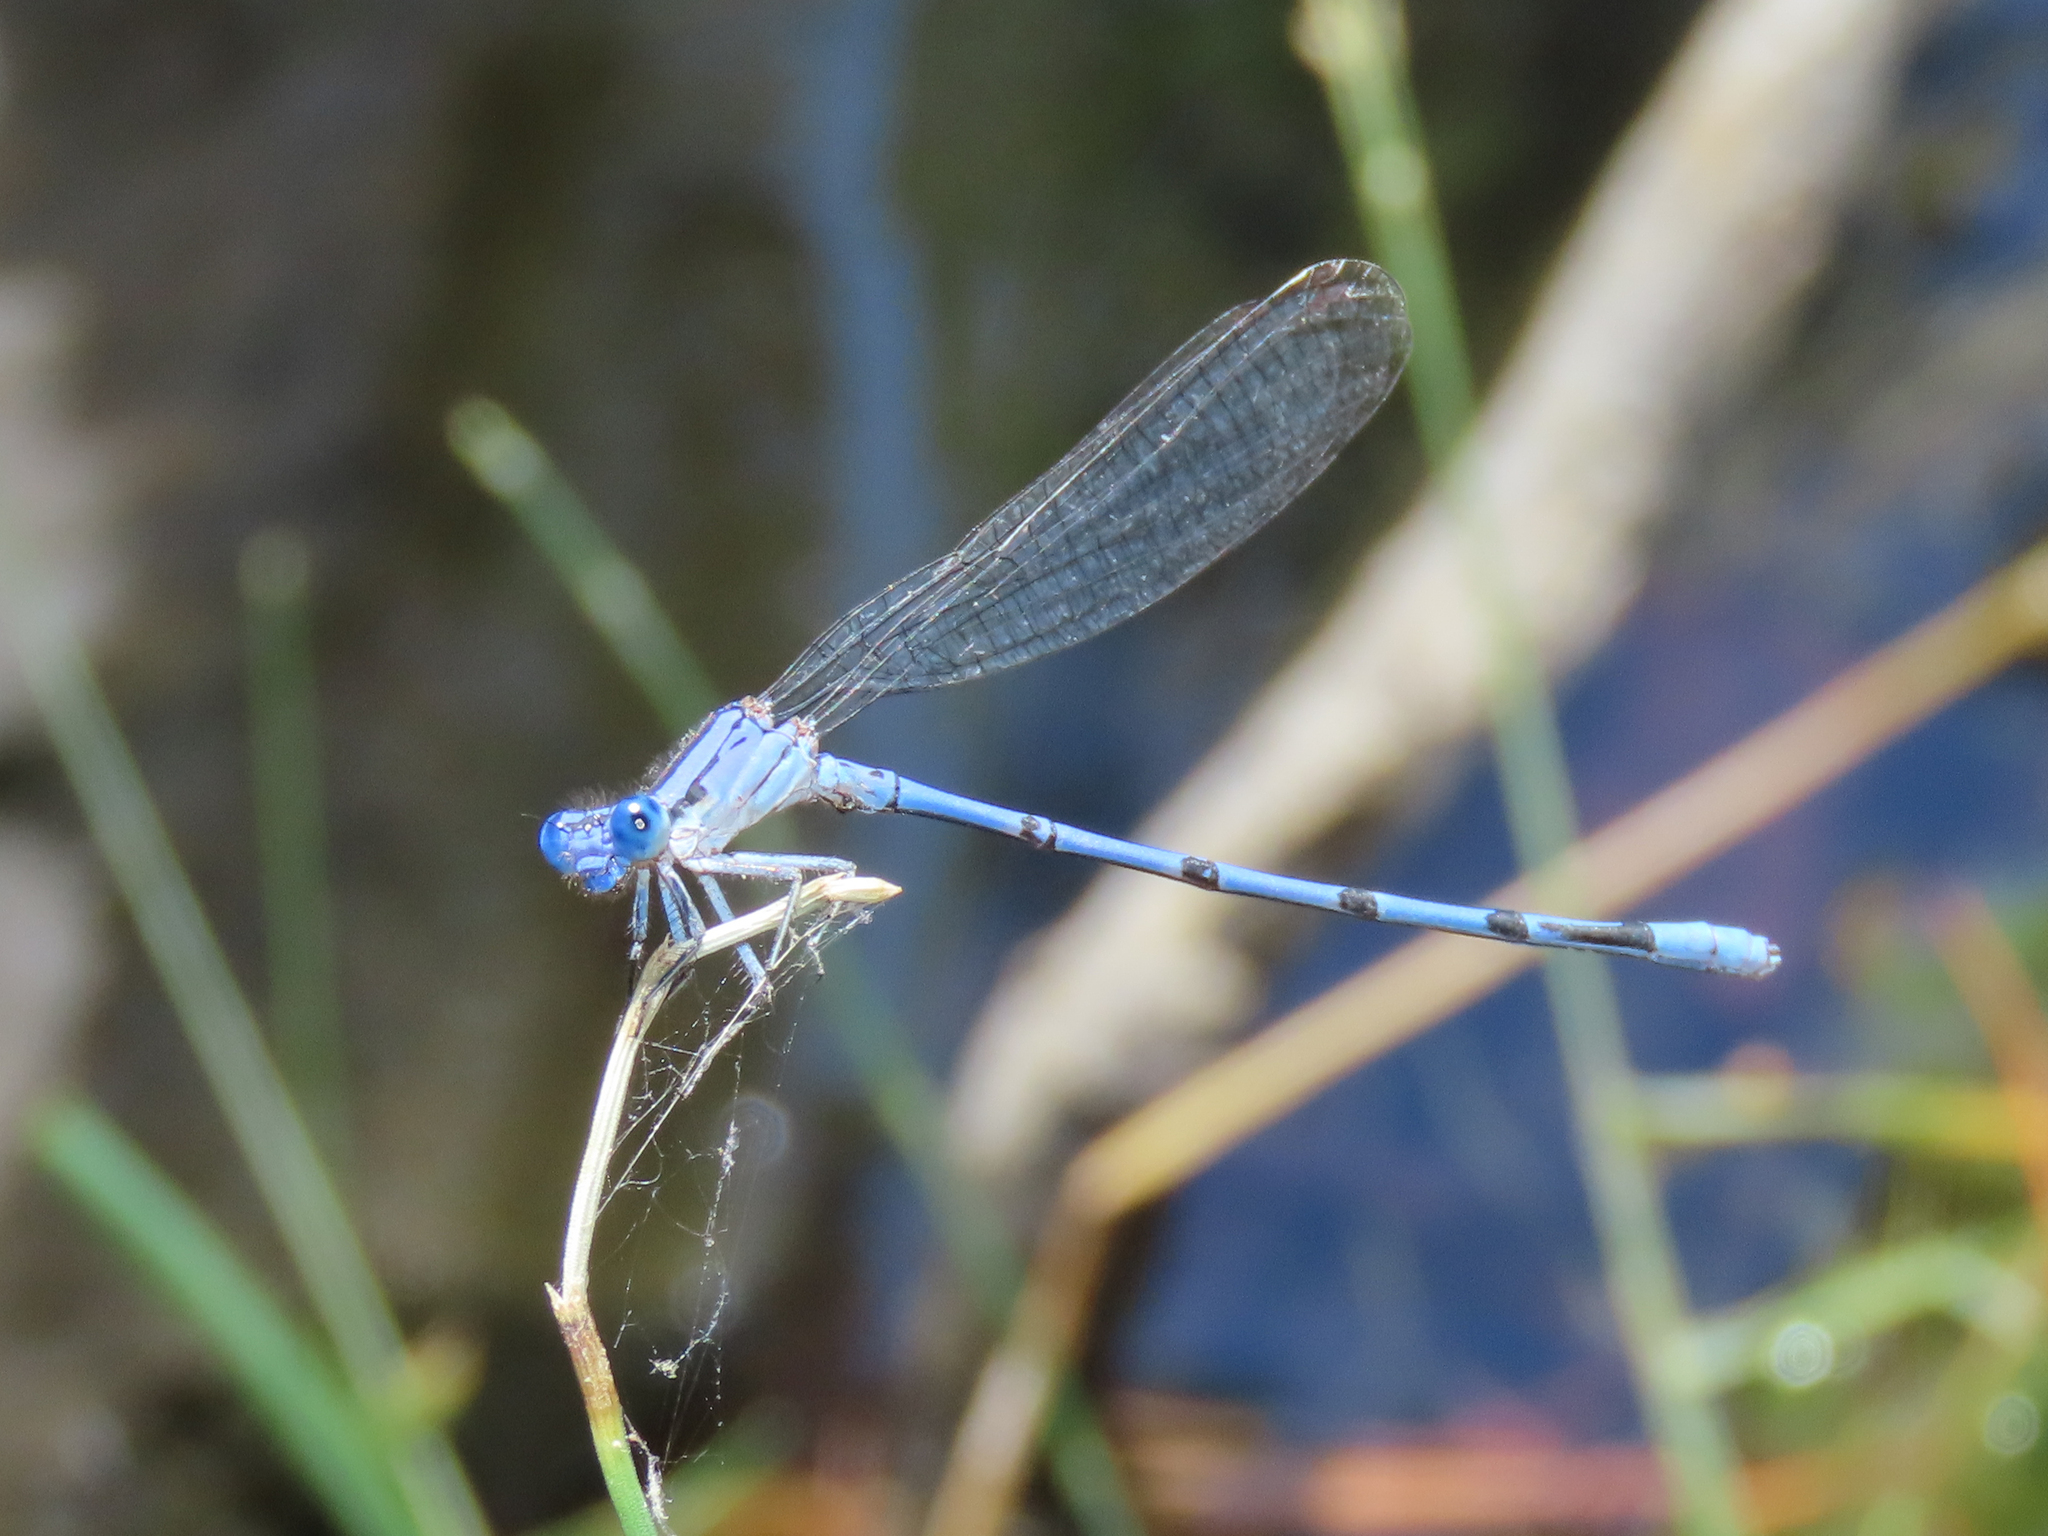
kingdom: Animalia
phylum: Arthropoda
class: Insecta
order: Odonata
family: Coenagrionidae
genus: Argia
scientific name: Argia lacrimans
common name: Sierra madre dancer
